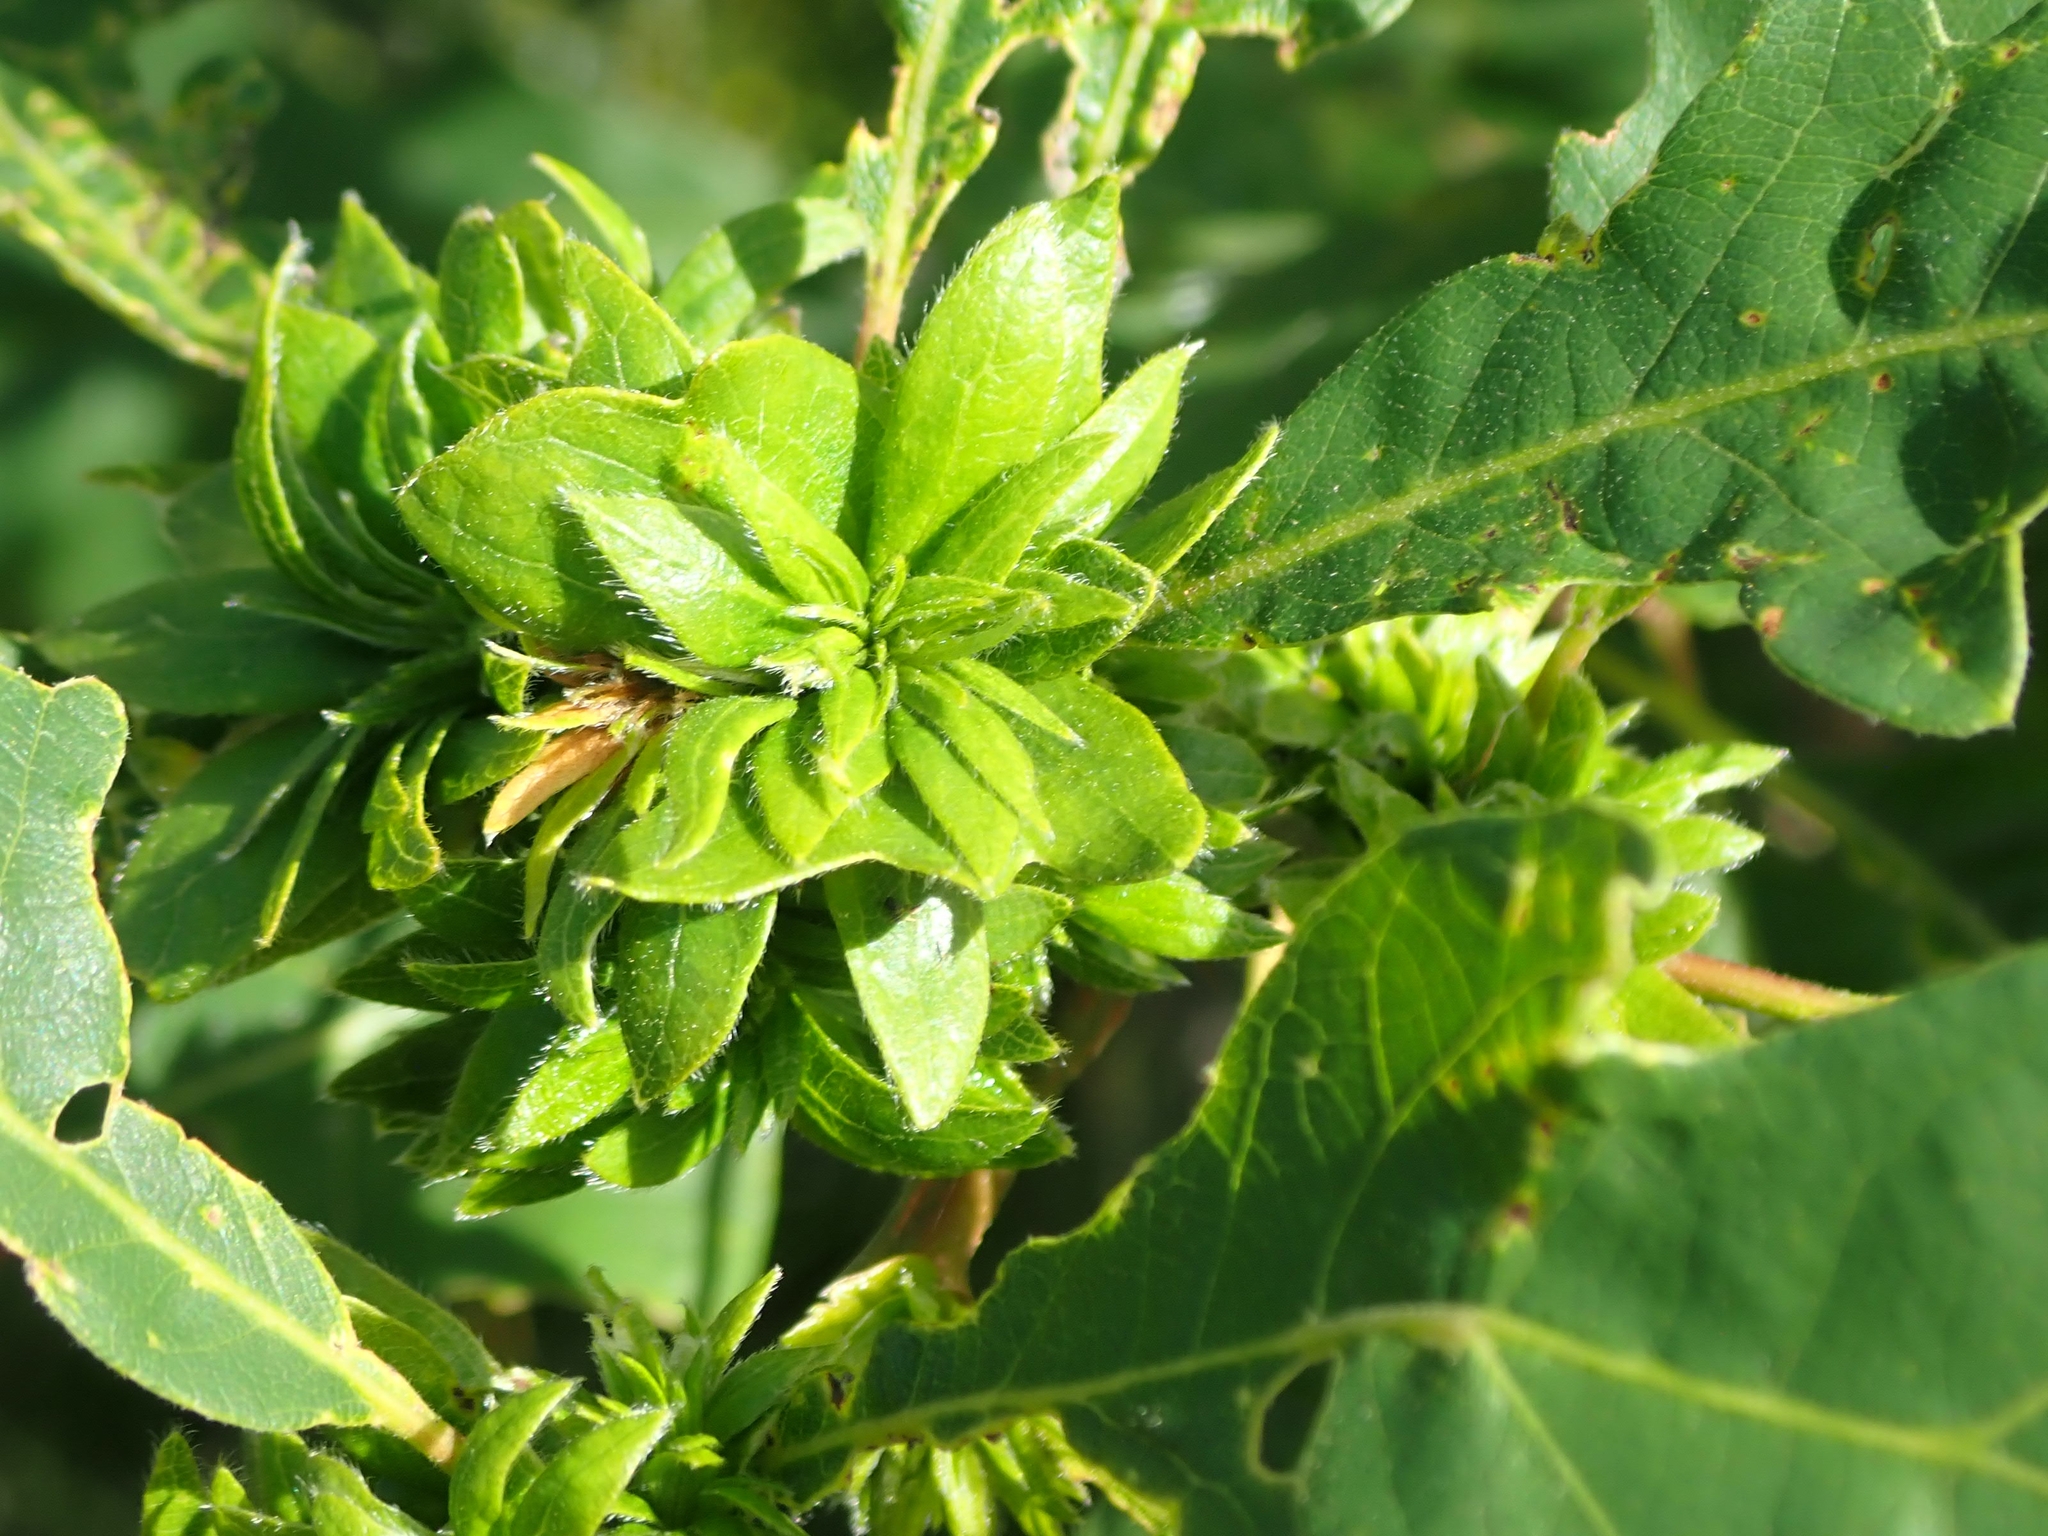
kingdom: Animalia
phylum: Arthropoda
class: Insecta
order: Hymenoptera
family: Cynipidae
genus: Andricus
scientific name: Andricus
